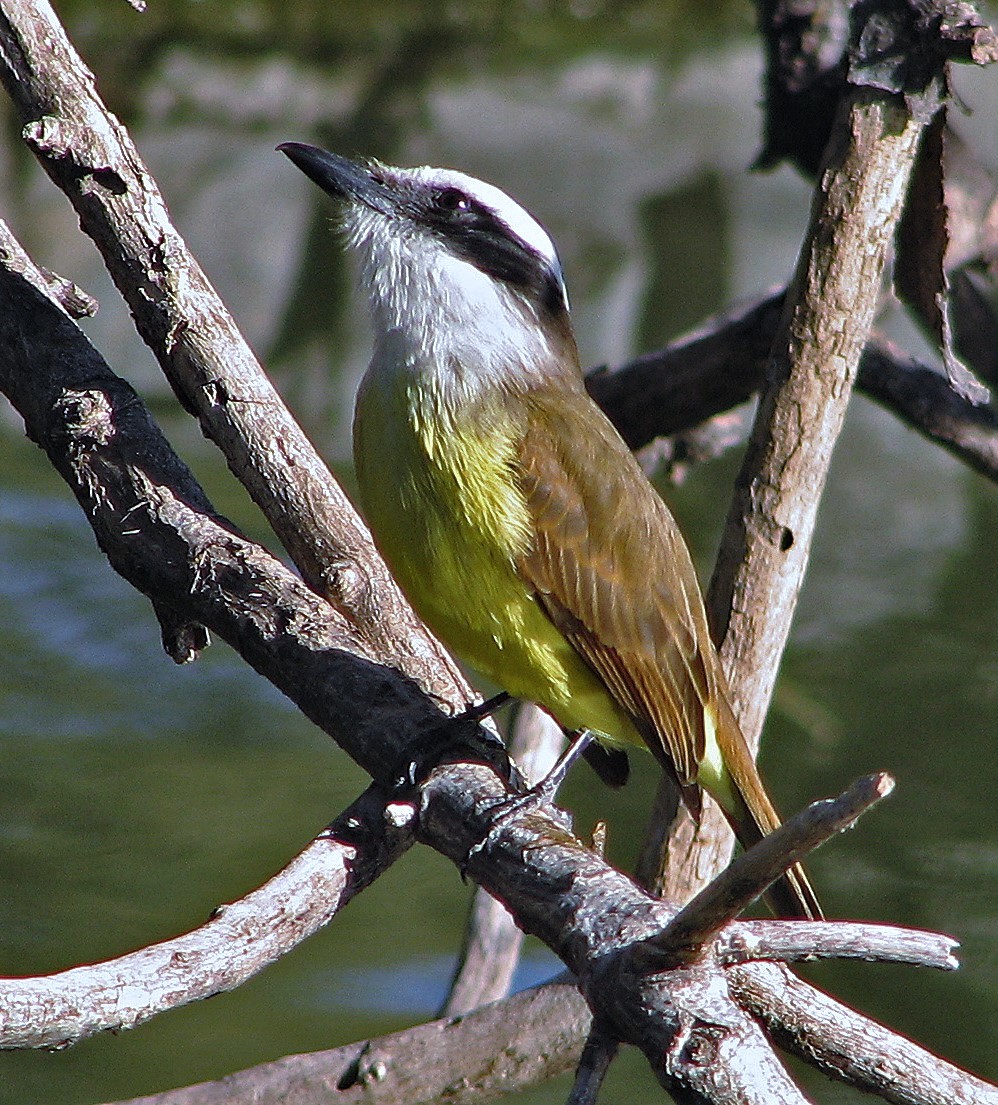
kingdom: Animalia
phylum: Chordata
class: Aves
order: Passeriformes
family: Tyrannidae
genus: Pitangus
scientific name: Pitangus sulphuratus
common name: Great kiskadee
